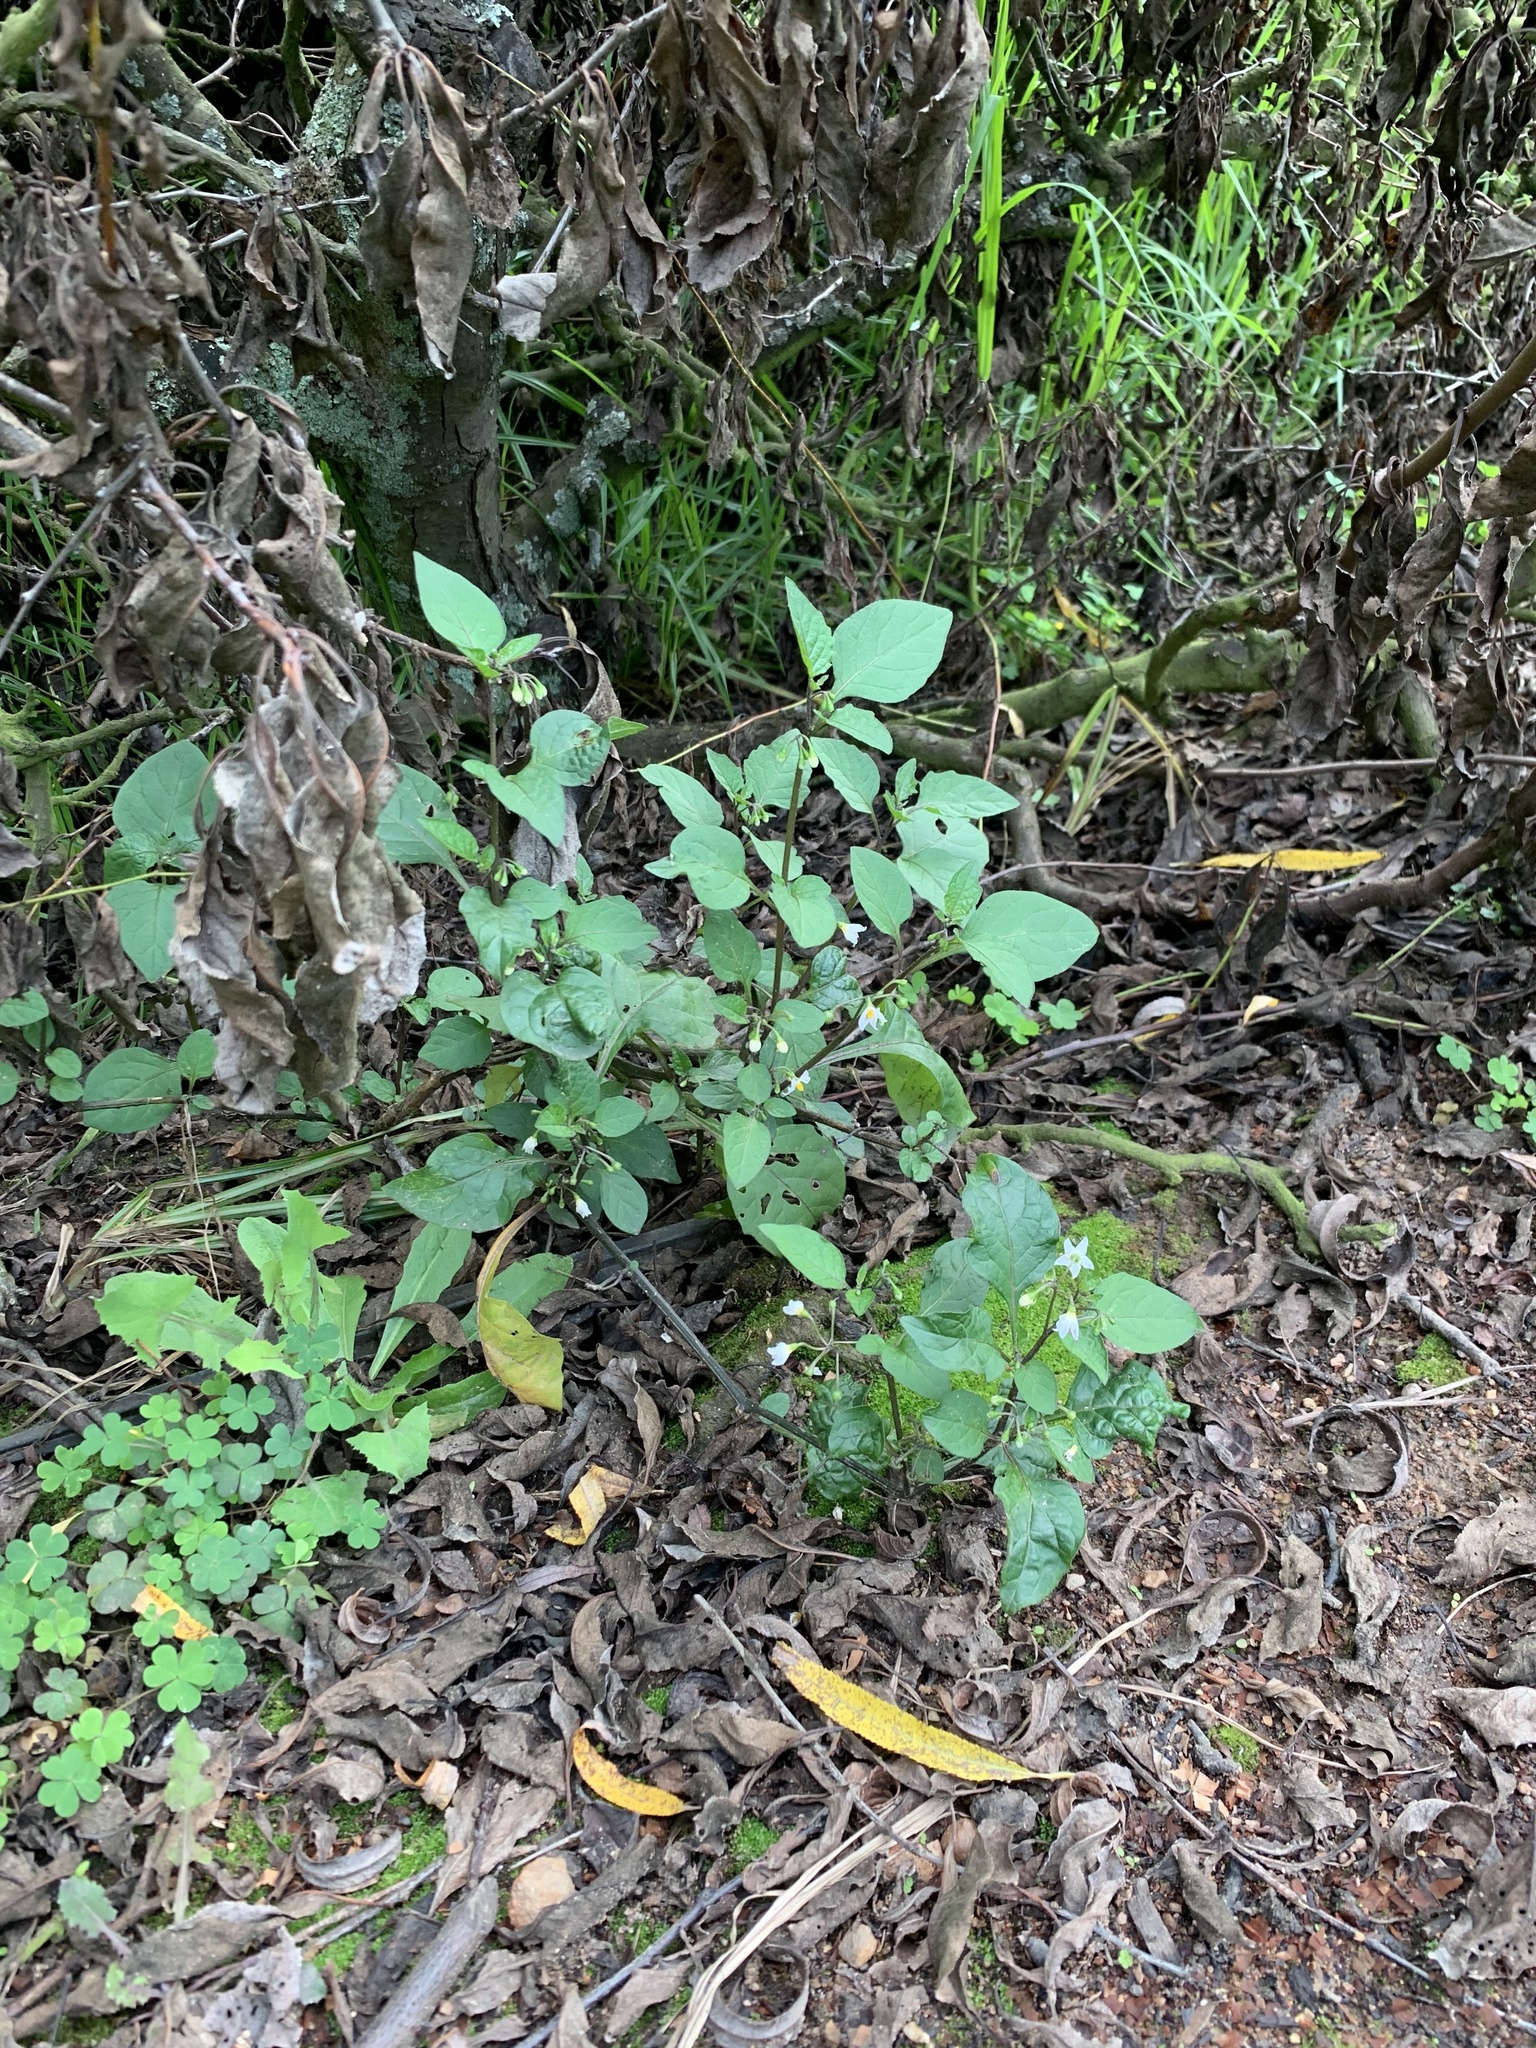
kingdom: Plantae
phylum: Tracheophyta
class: Magnoliopsida
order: Solanales
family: Solanaceae
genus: Solanum
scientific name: Solanum nigrum
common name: Black nightshade
